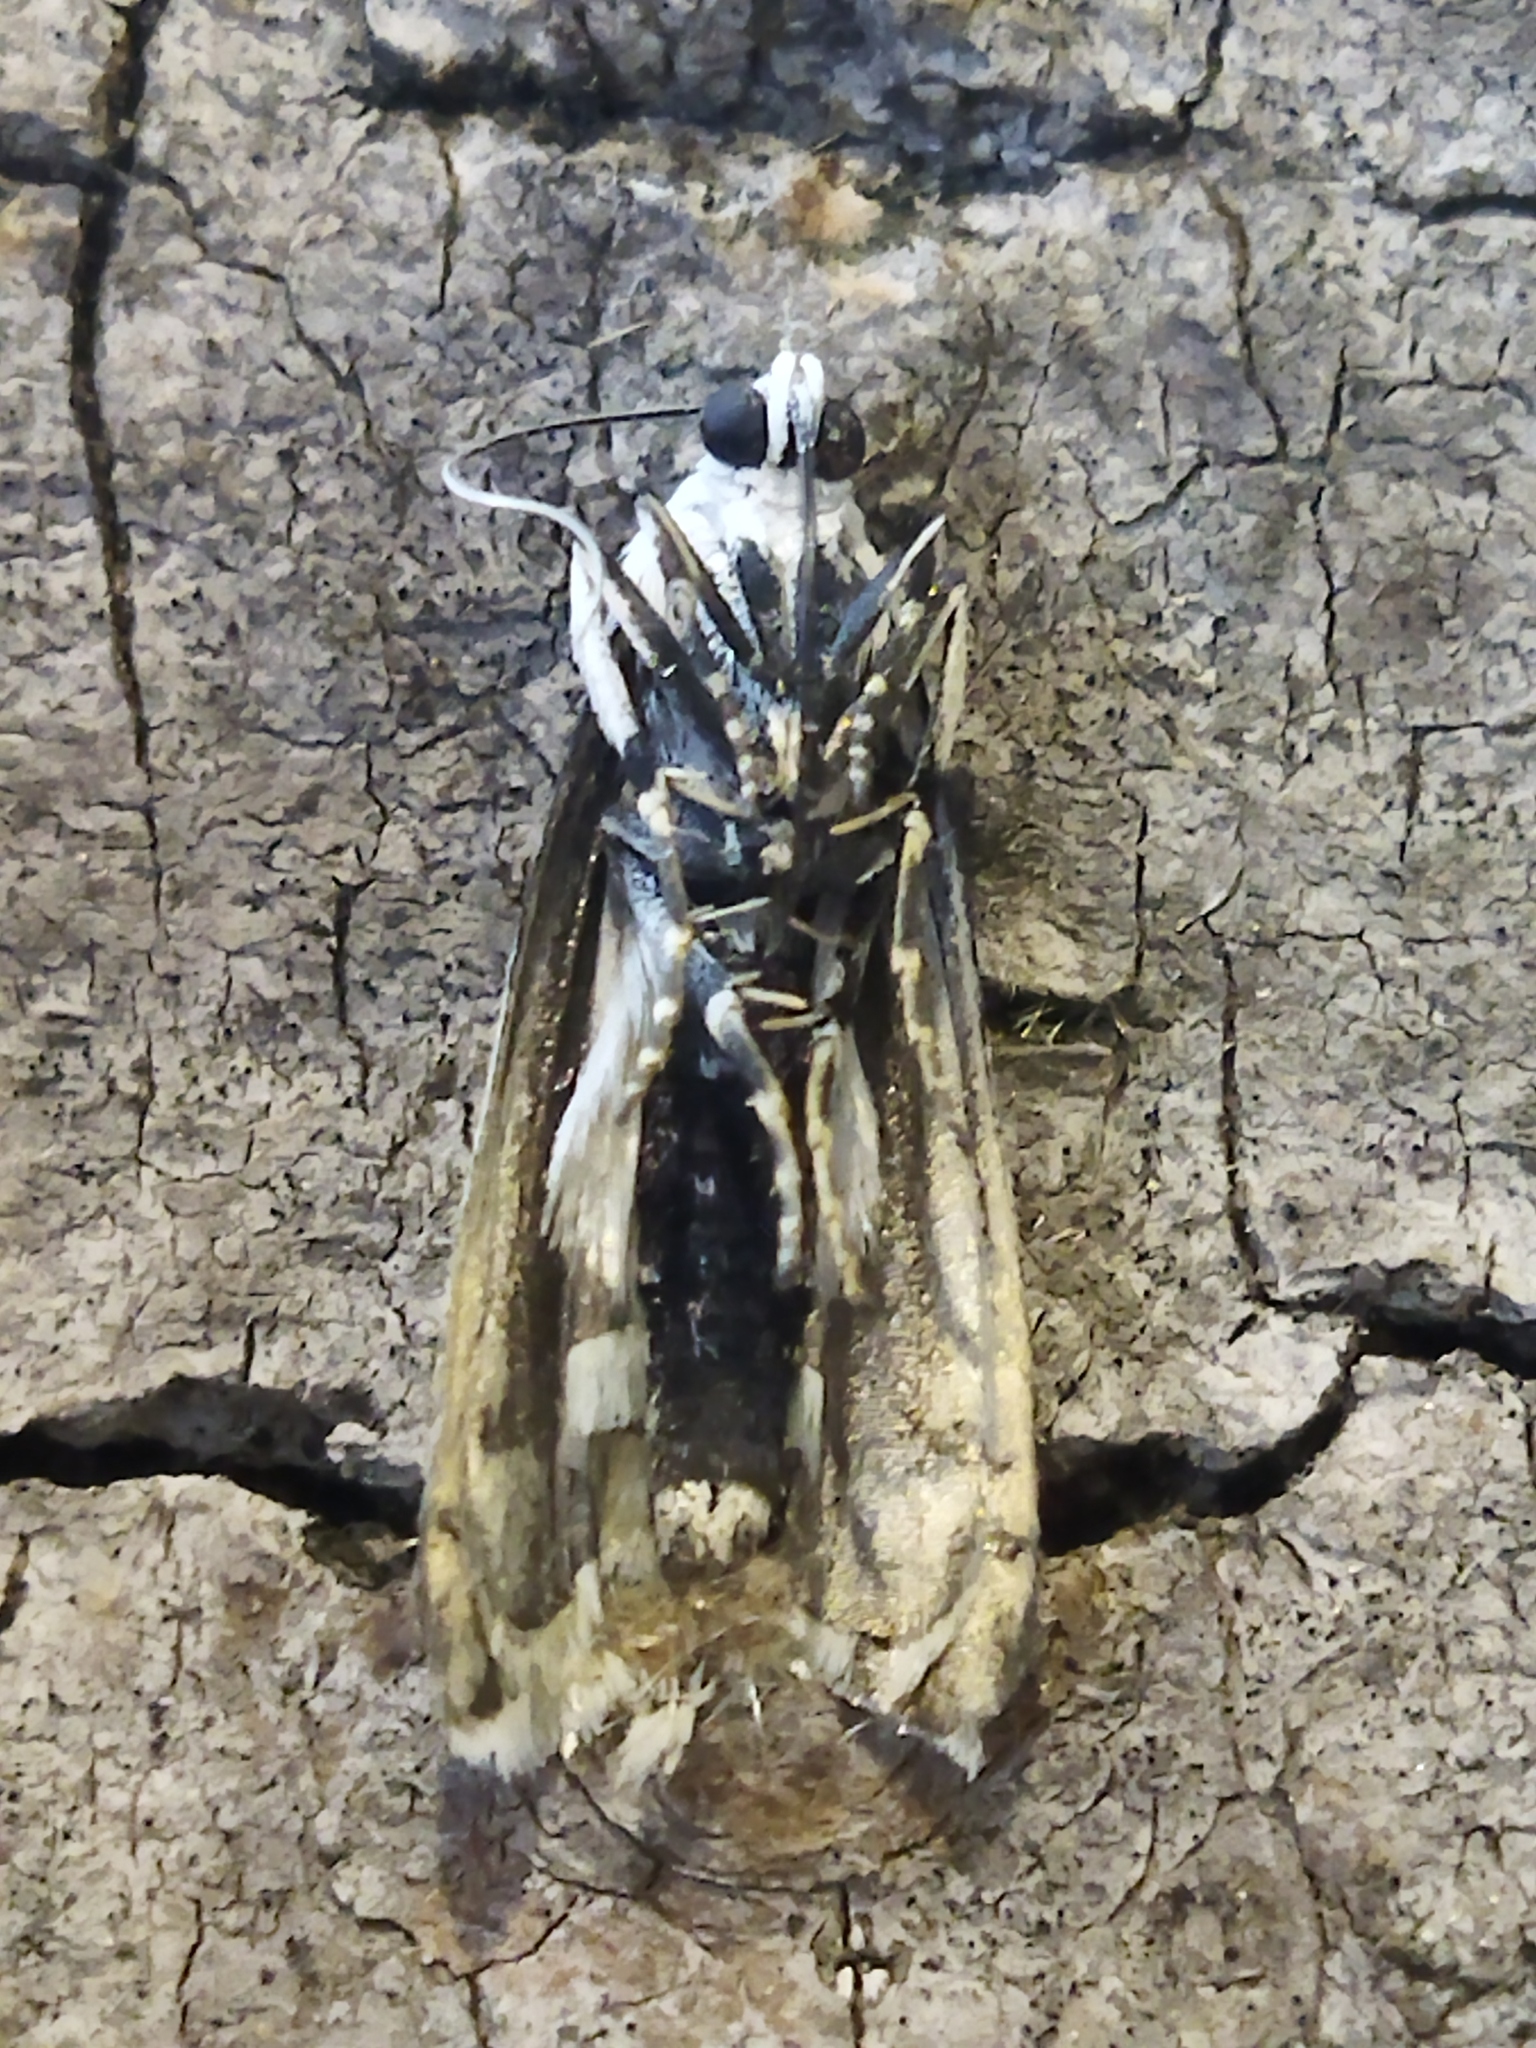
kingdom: Animalia
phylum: Arthropoda
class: Insecta
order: Lepidoptera
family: Pyralidae
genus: Myelois
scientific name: Myelois circumvoluta
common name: Thistle ermine
